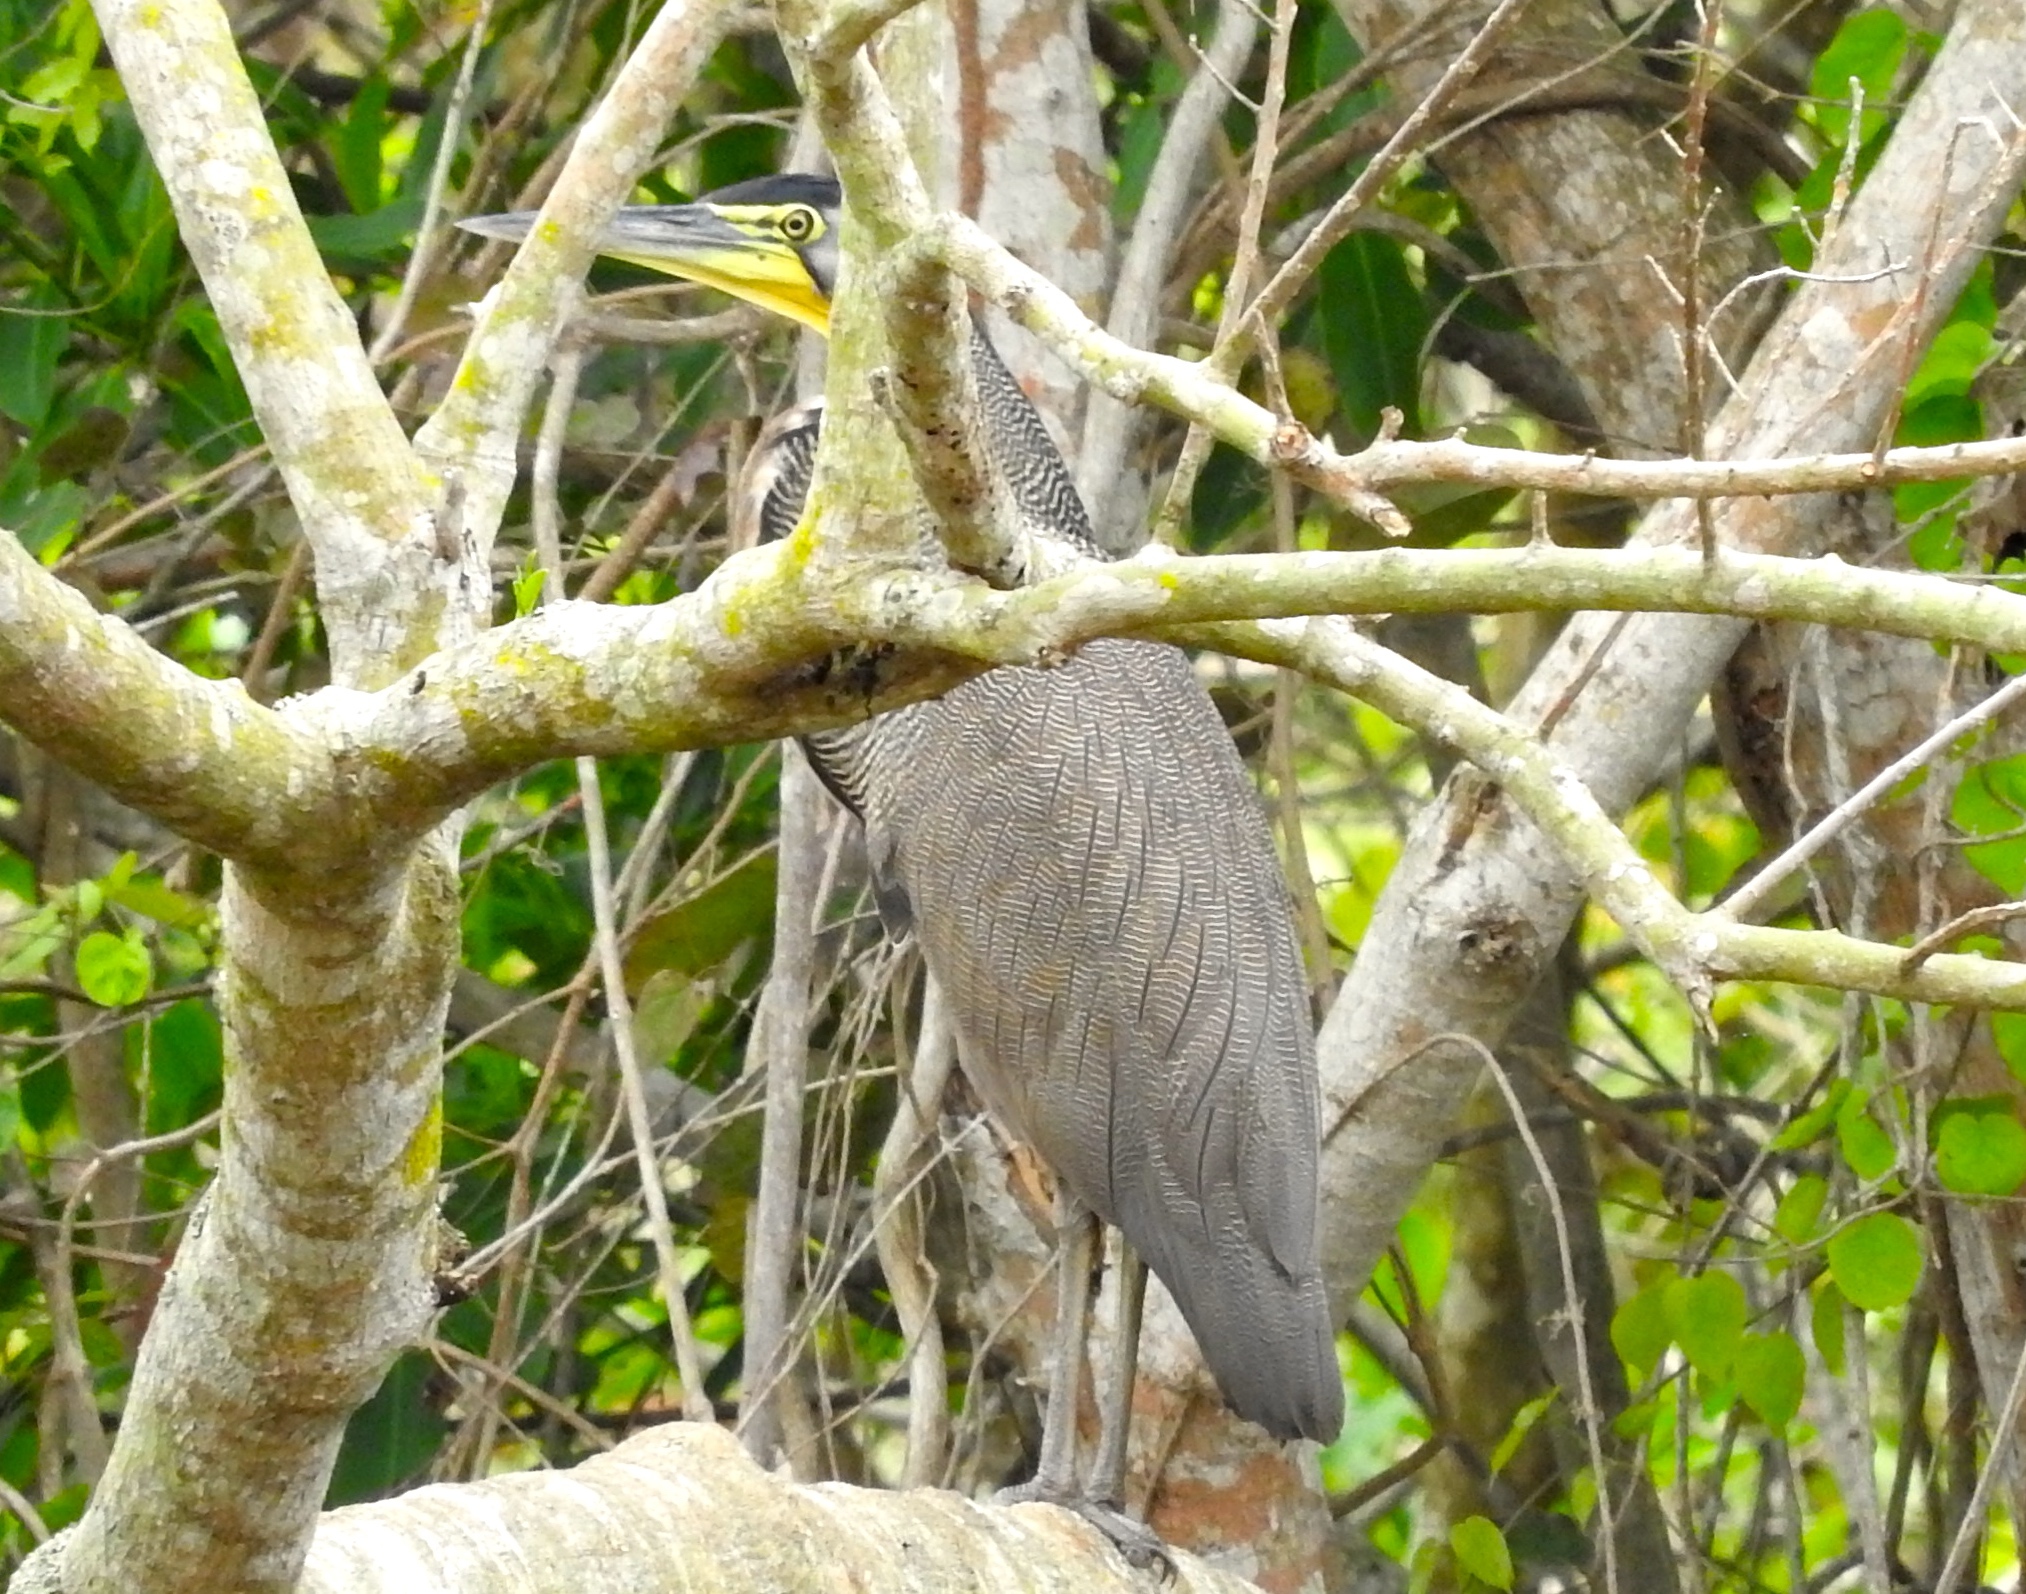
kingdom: Animalia
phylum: Chordata
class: Aves
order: Pelecaniformes
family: Ardeidae
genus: Tigrisoma
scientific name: Tigrisoma mexicanum
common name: Bare-throated tiger-heron
